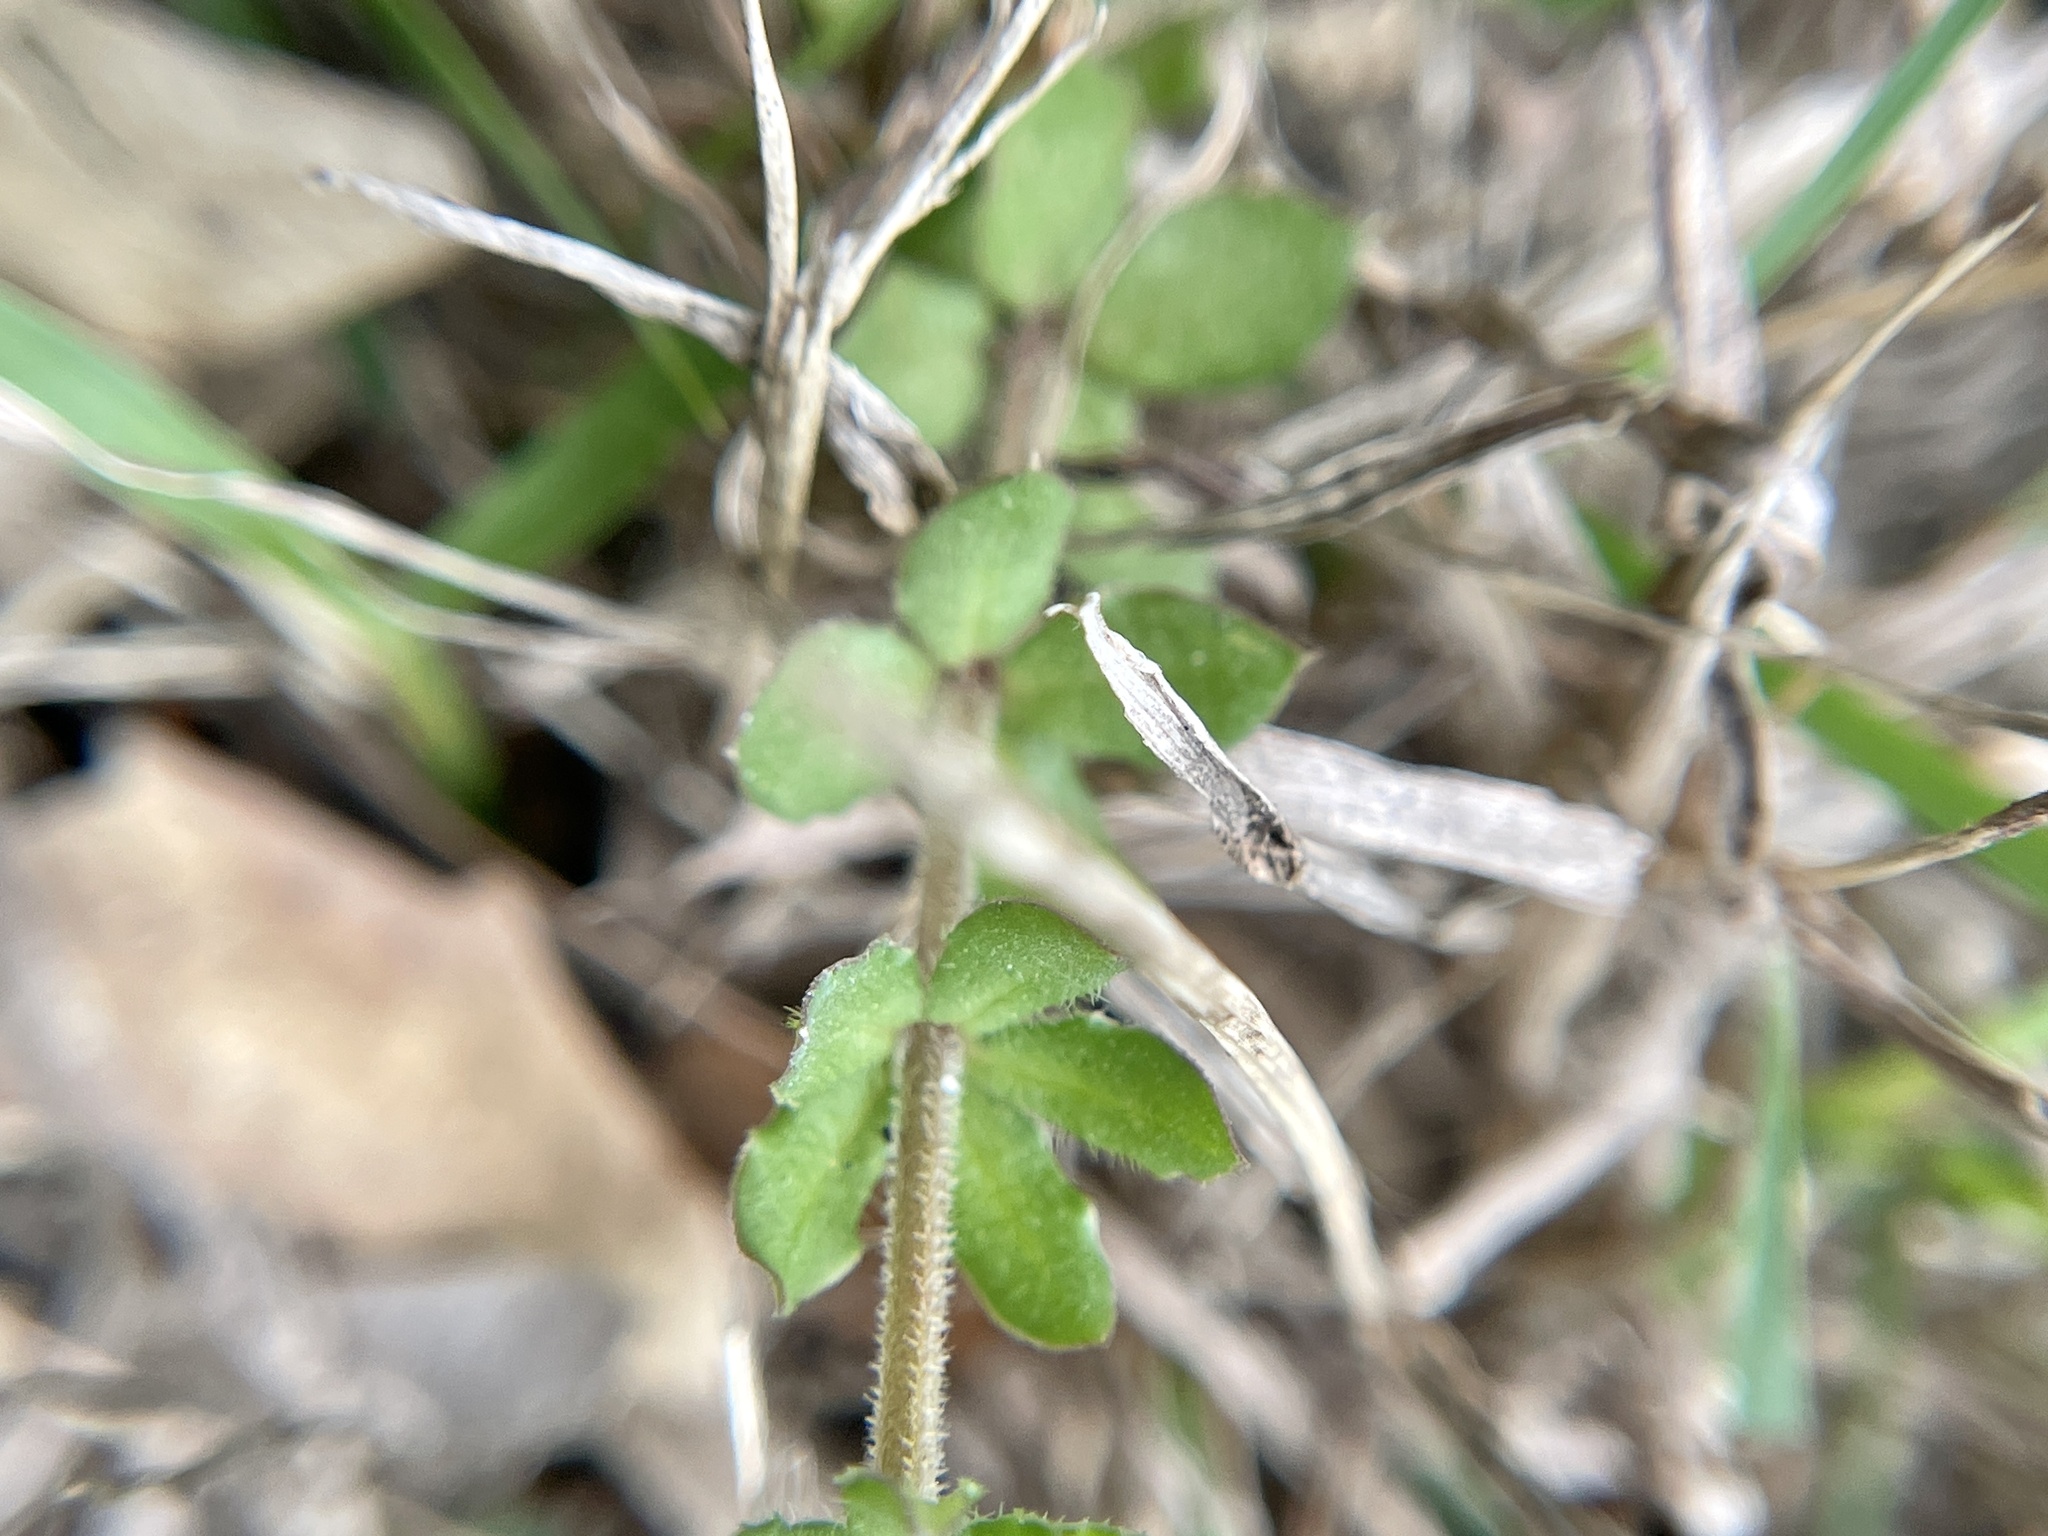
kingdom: Plantae
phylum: Tracheophyta
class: Magnoliopsida
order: Gentianales
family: Rubiaceae
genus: Sherardia
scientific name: Sherardia arvensis
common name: Field madder
